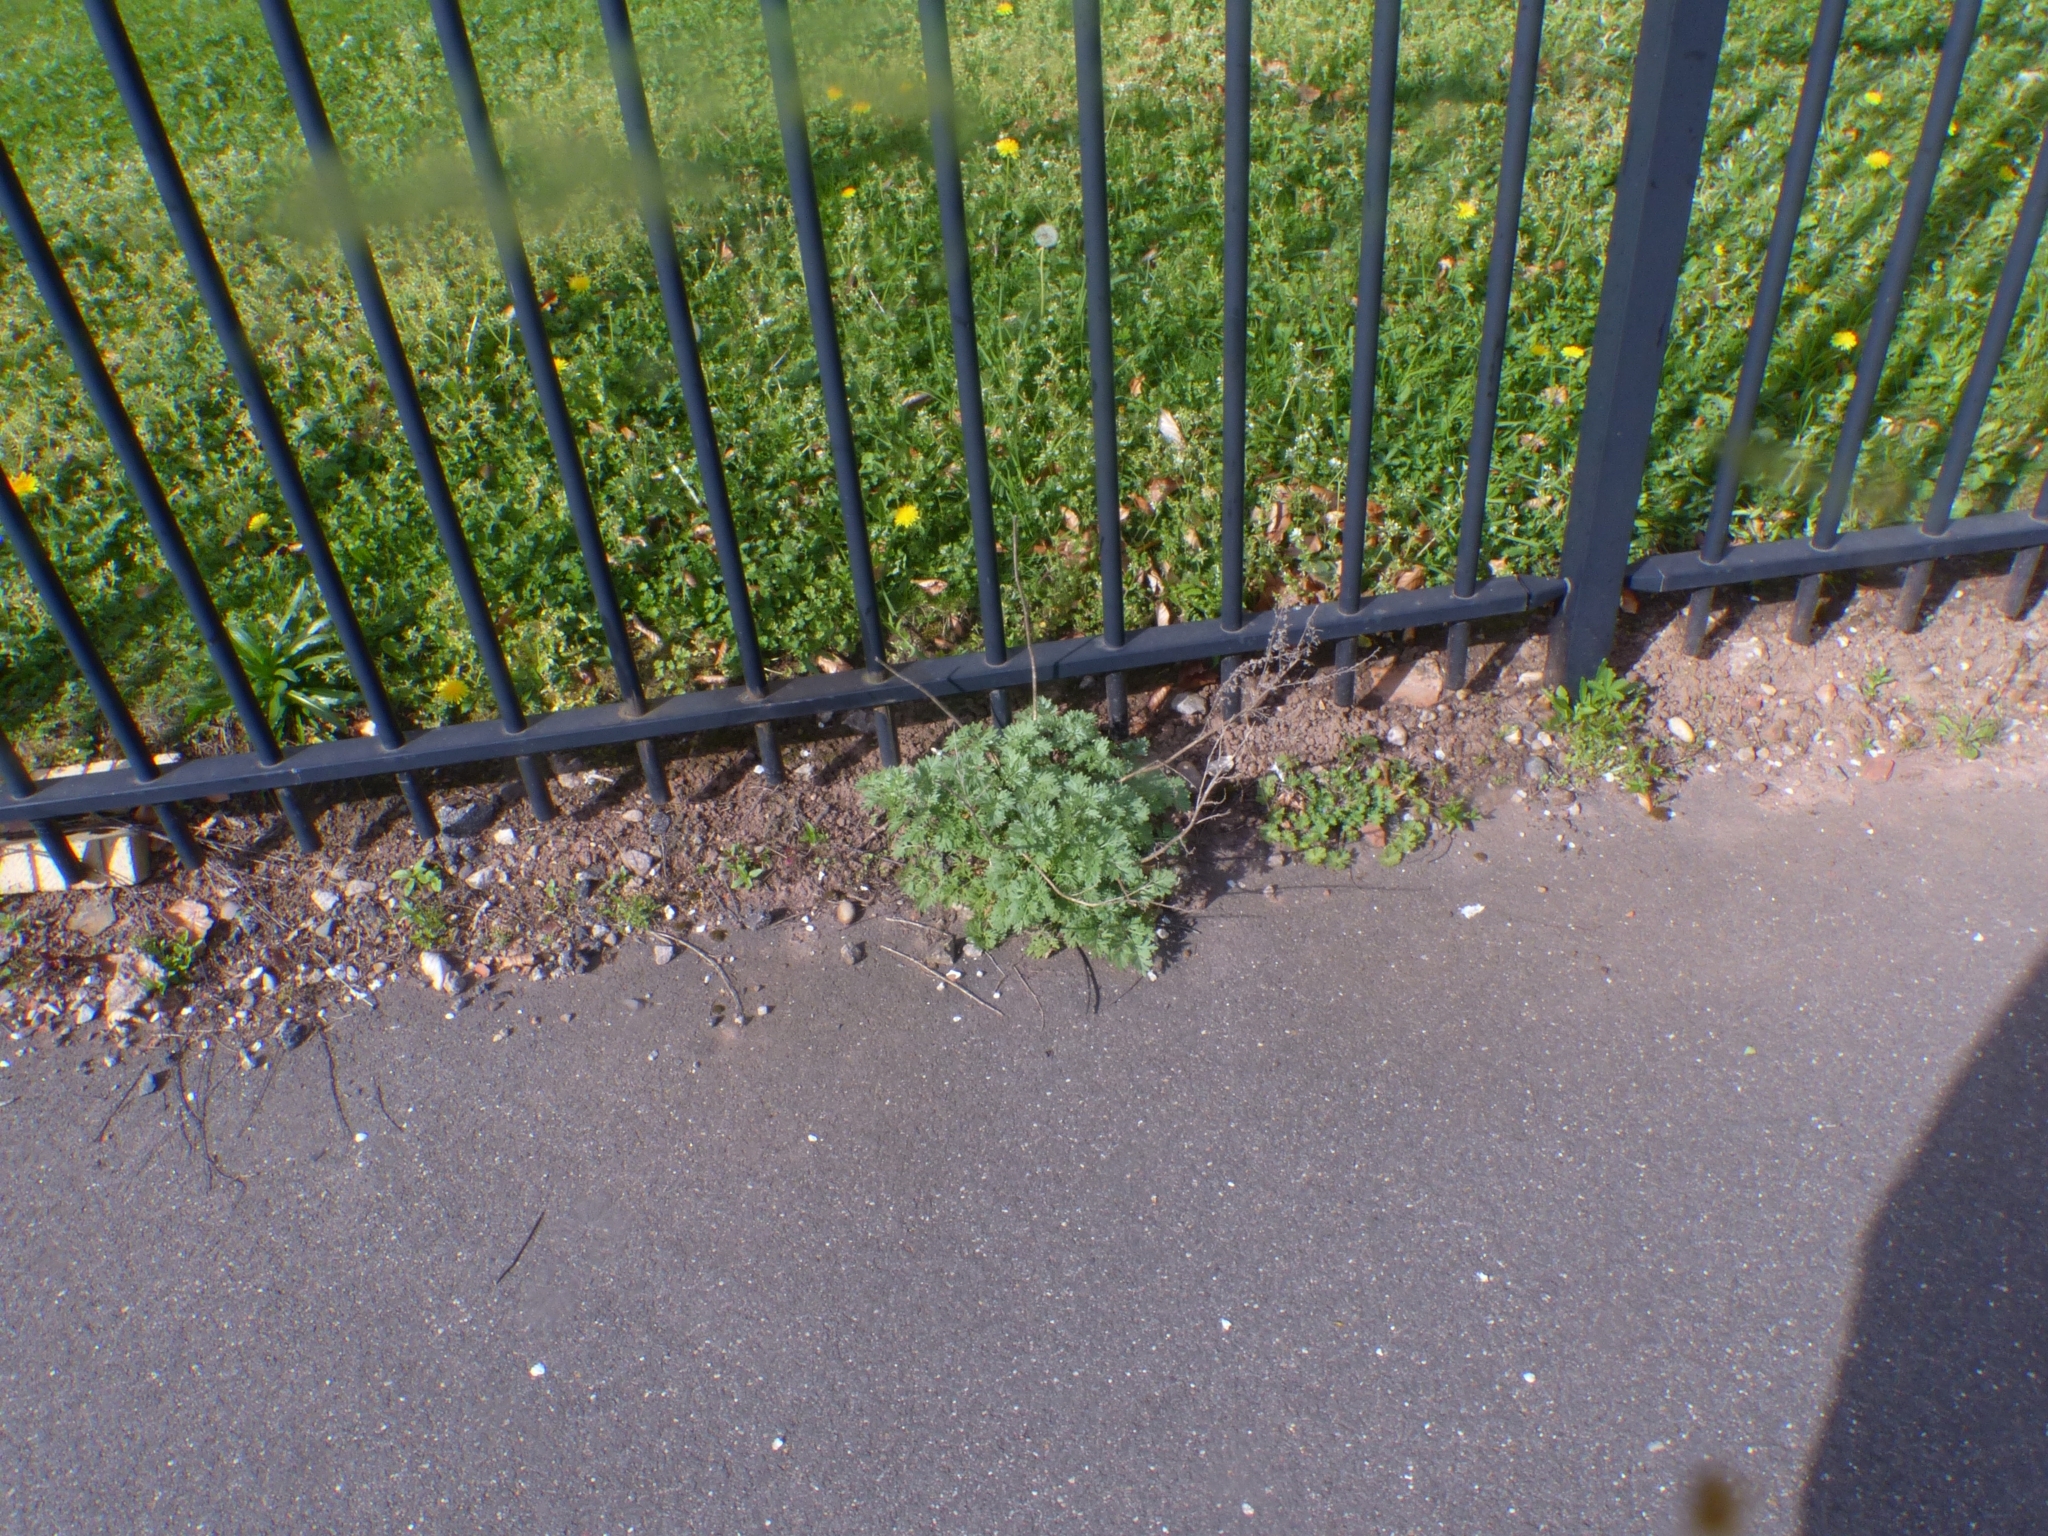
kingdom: Plantae
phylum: Tracheophyta
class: Magnoliopsida
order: Asterales
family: Asteraceae
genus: Artemisia
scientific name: Artemisia absinthium
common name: Wormwood
